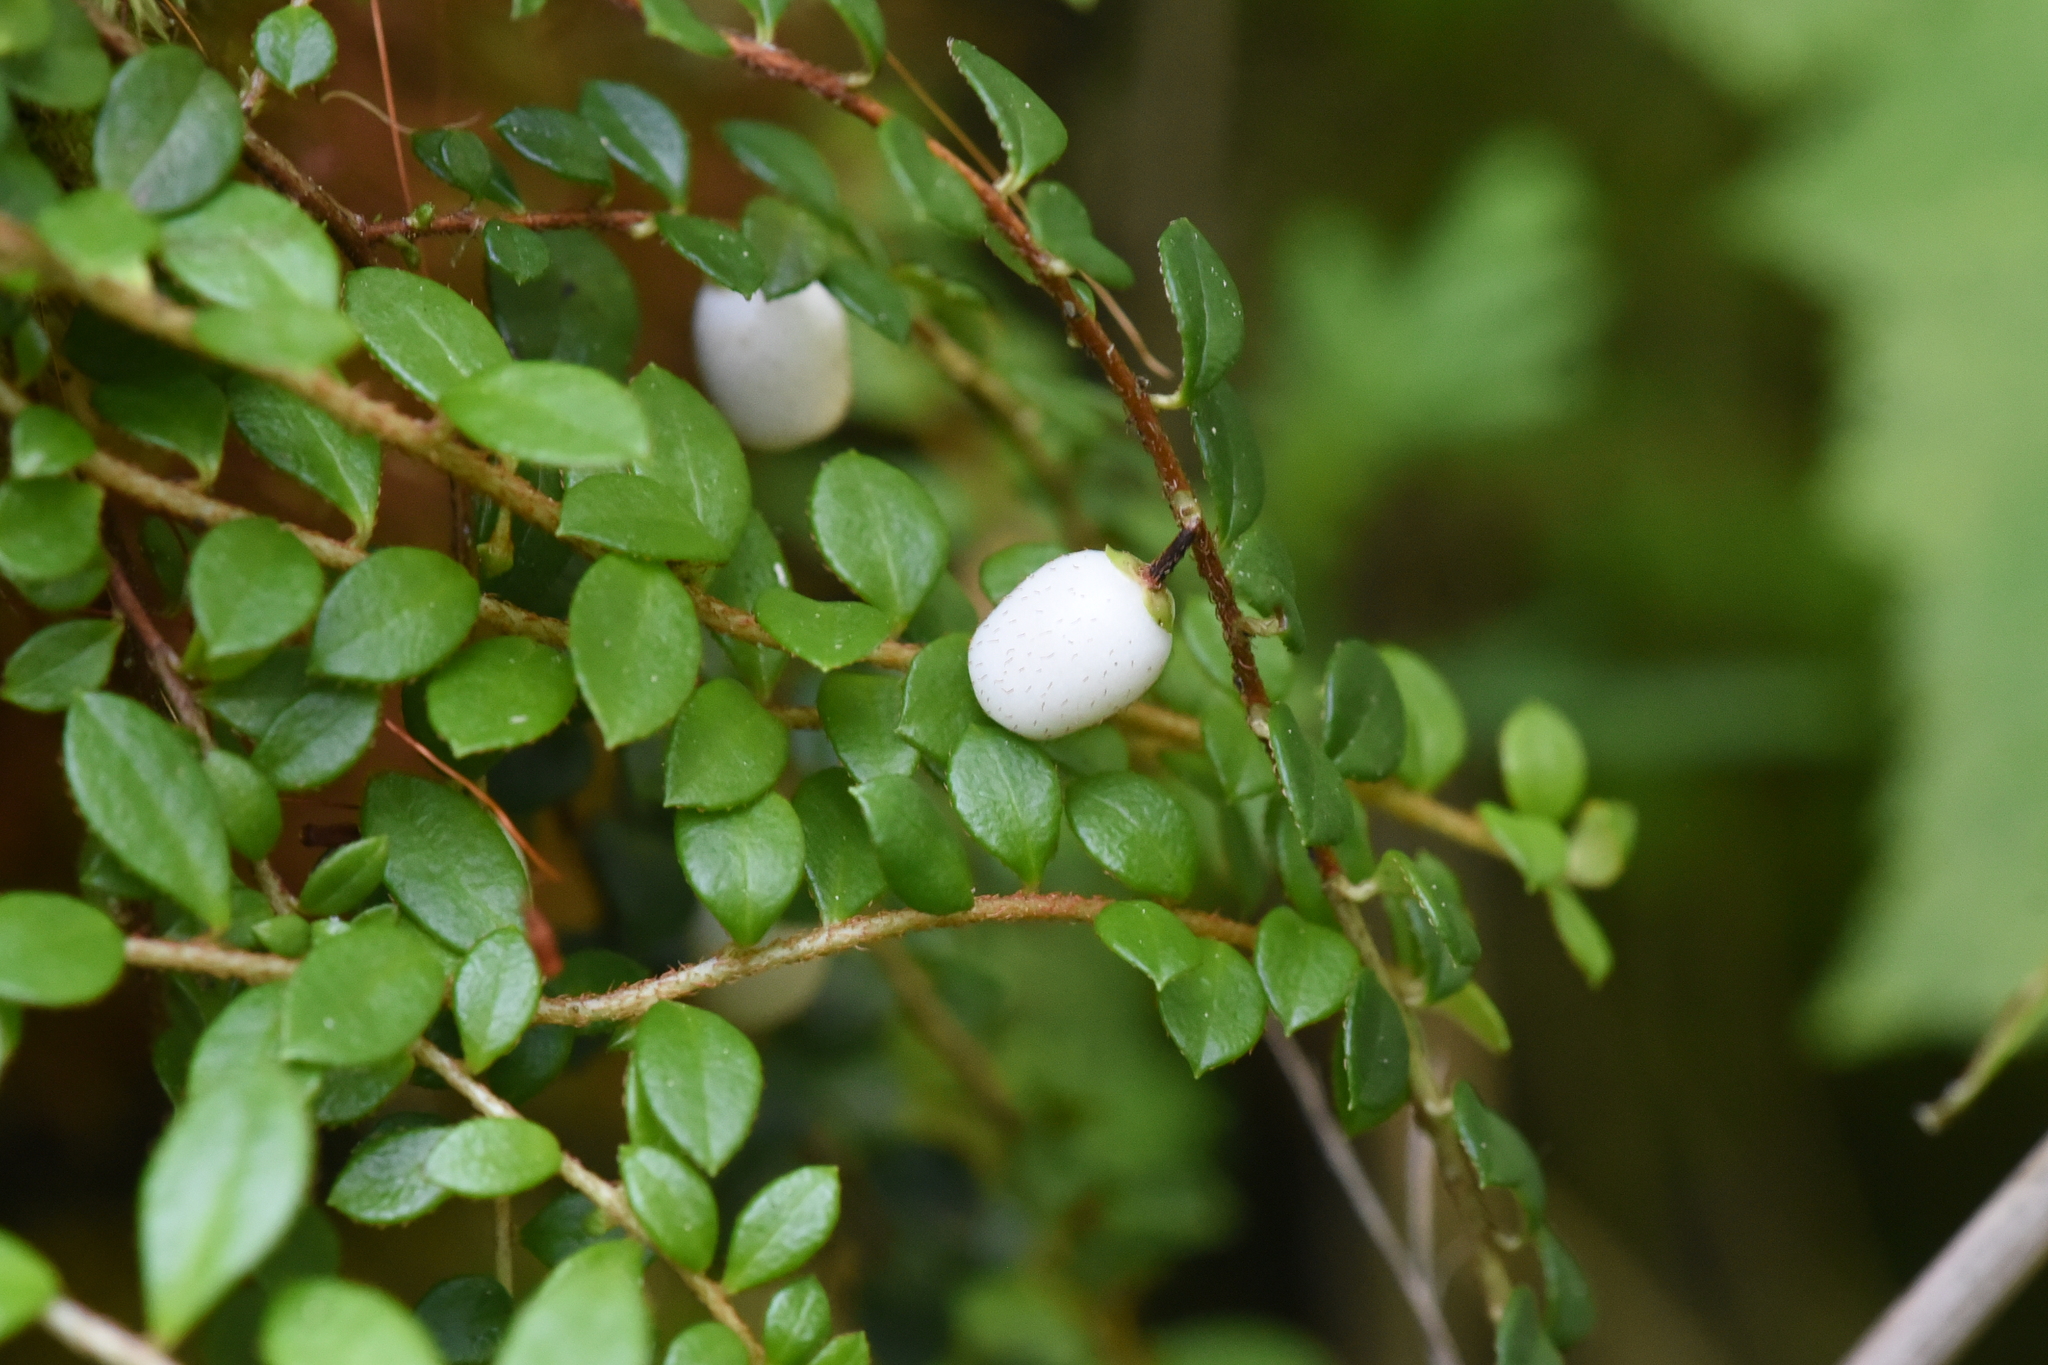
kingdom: Plantae
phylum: Tracheophyta
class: Magnoliopsida
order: Ericales
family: Ericaceae
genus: Gaultheria
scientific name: Gaultheria hispidula
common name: Cancer wintergreen
